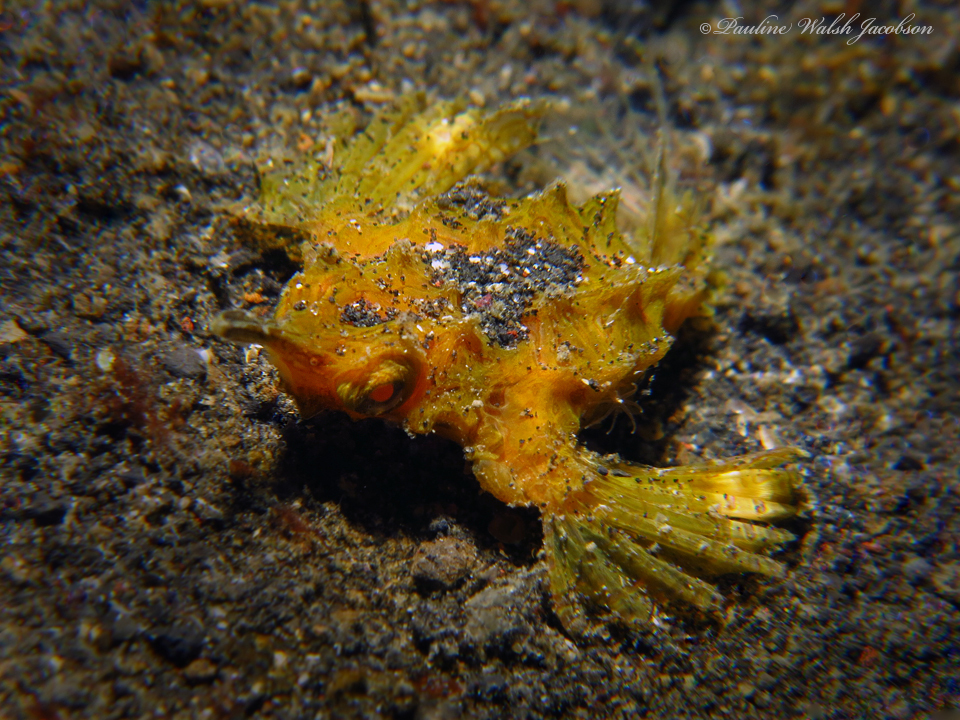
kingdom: Animalia
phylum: Chordata
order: Gasterosteiformes
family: Pegasidae
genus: Eurypegasus
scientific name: Eurypegasus draconis
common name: Short dragonfish
